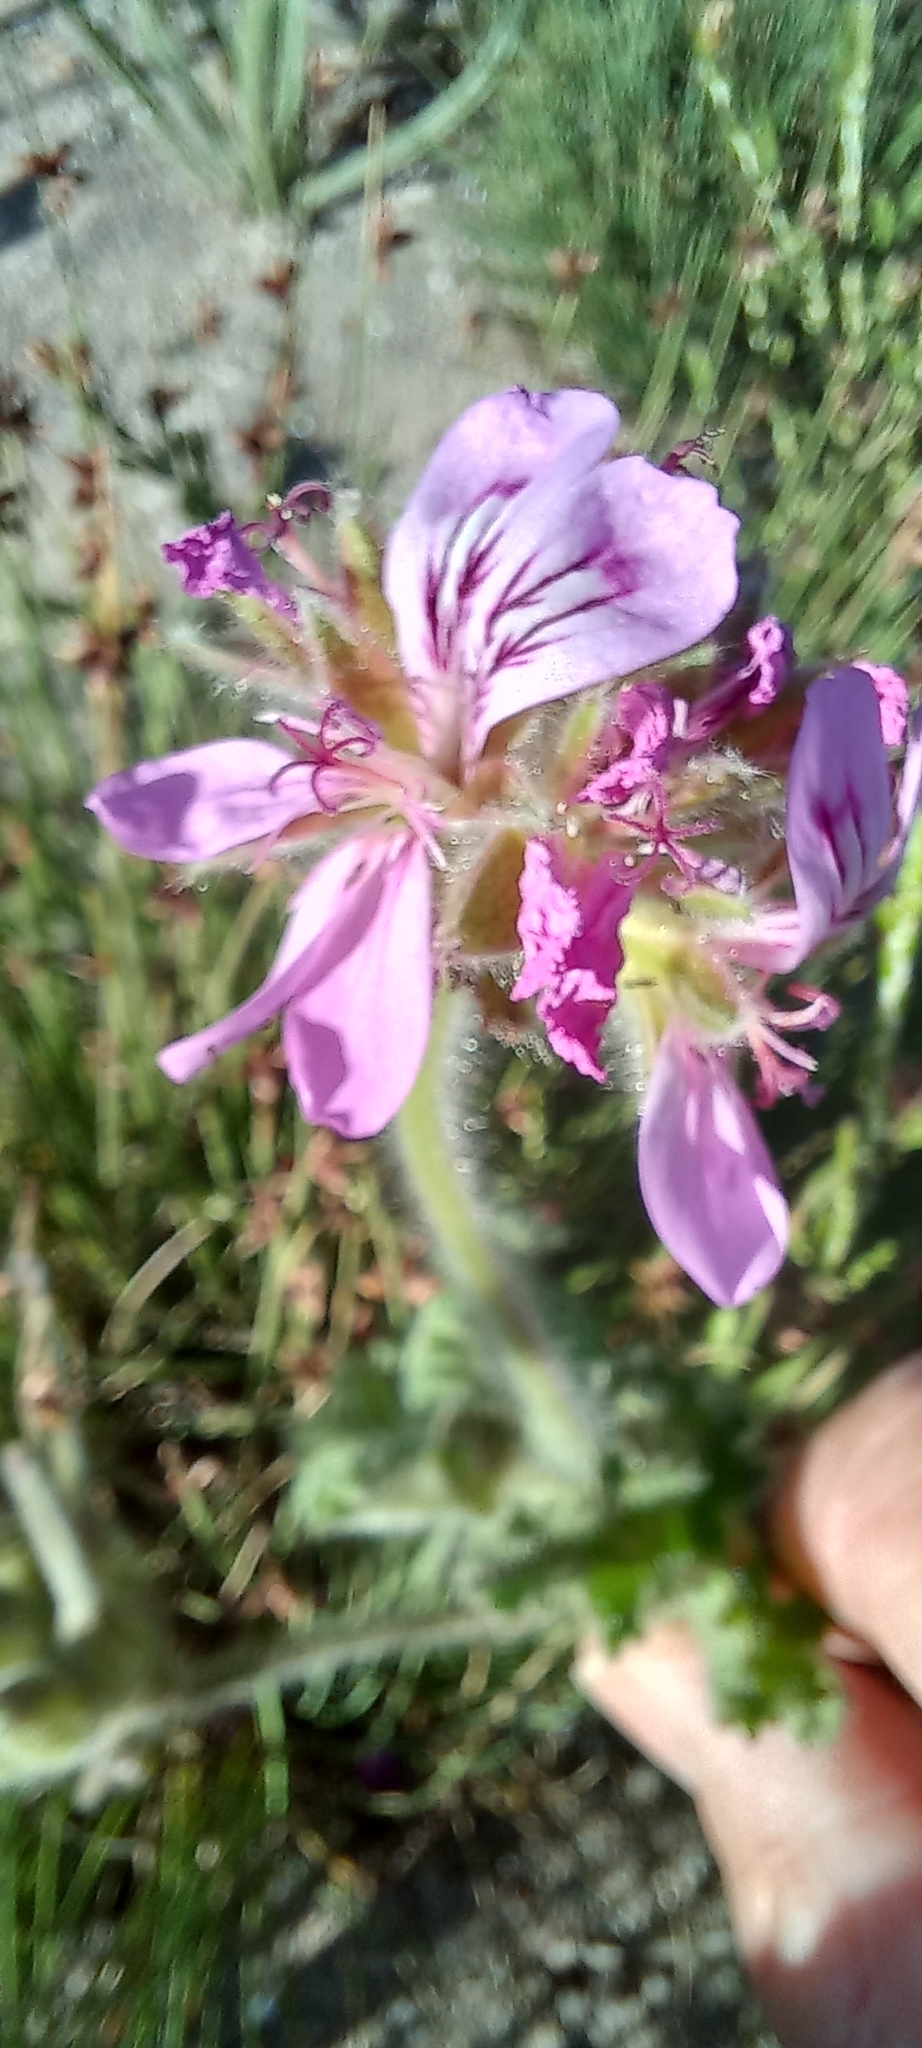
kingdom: Plantae
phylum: Tracheophyta
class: Magnoliopsida
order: Geraniales
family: Geraniaceae
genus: Pelargonium
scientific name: Pelargonium capitatum
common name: Rose scented geranium
